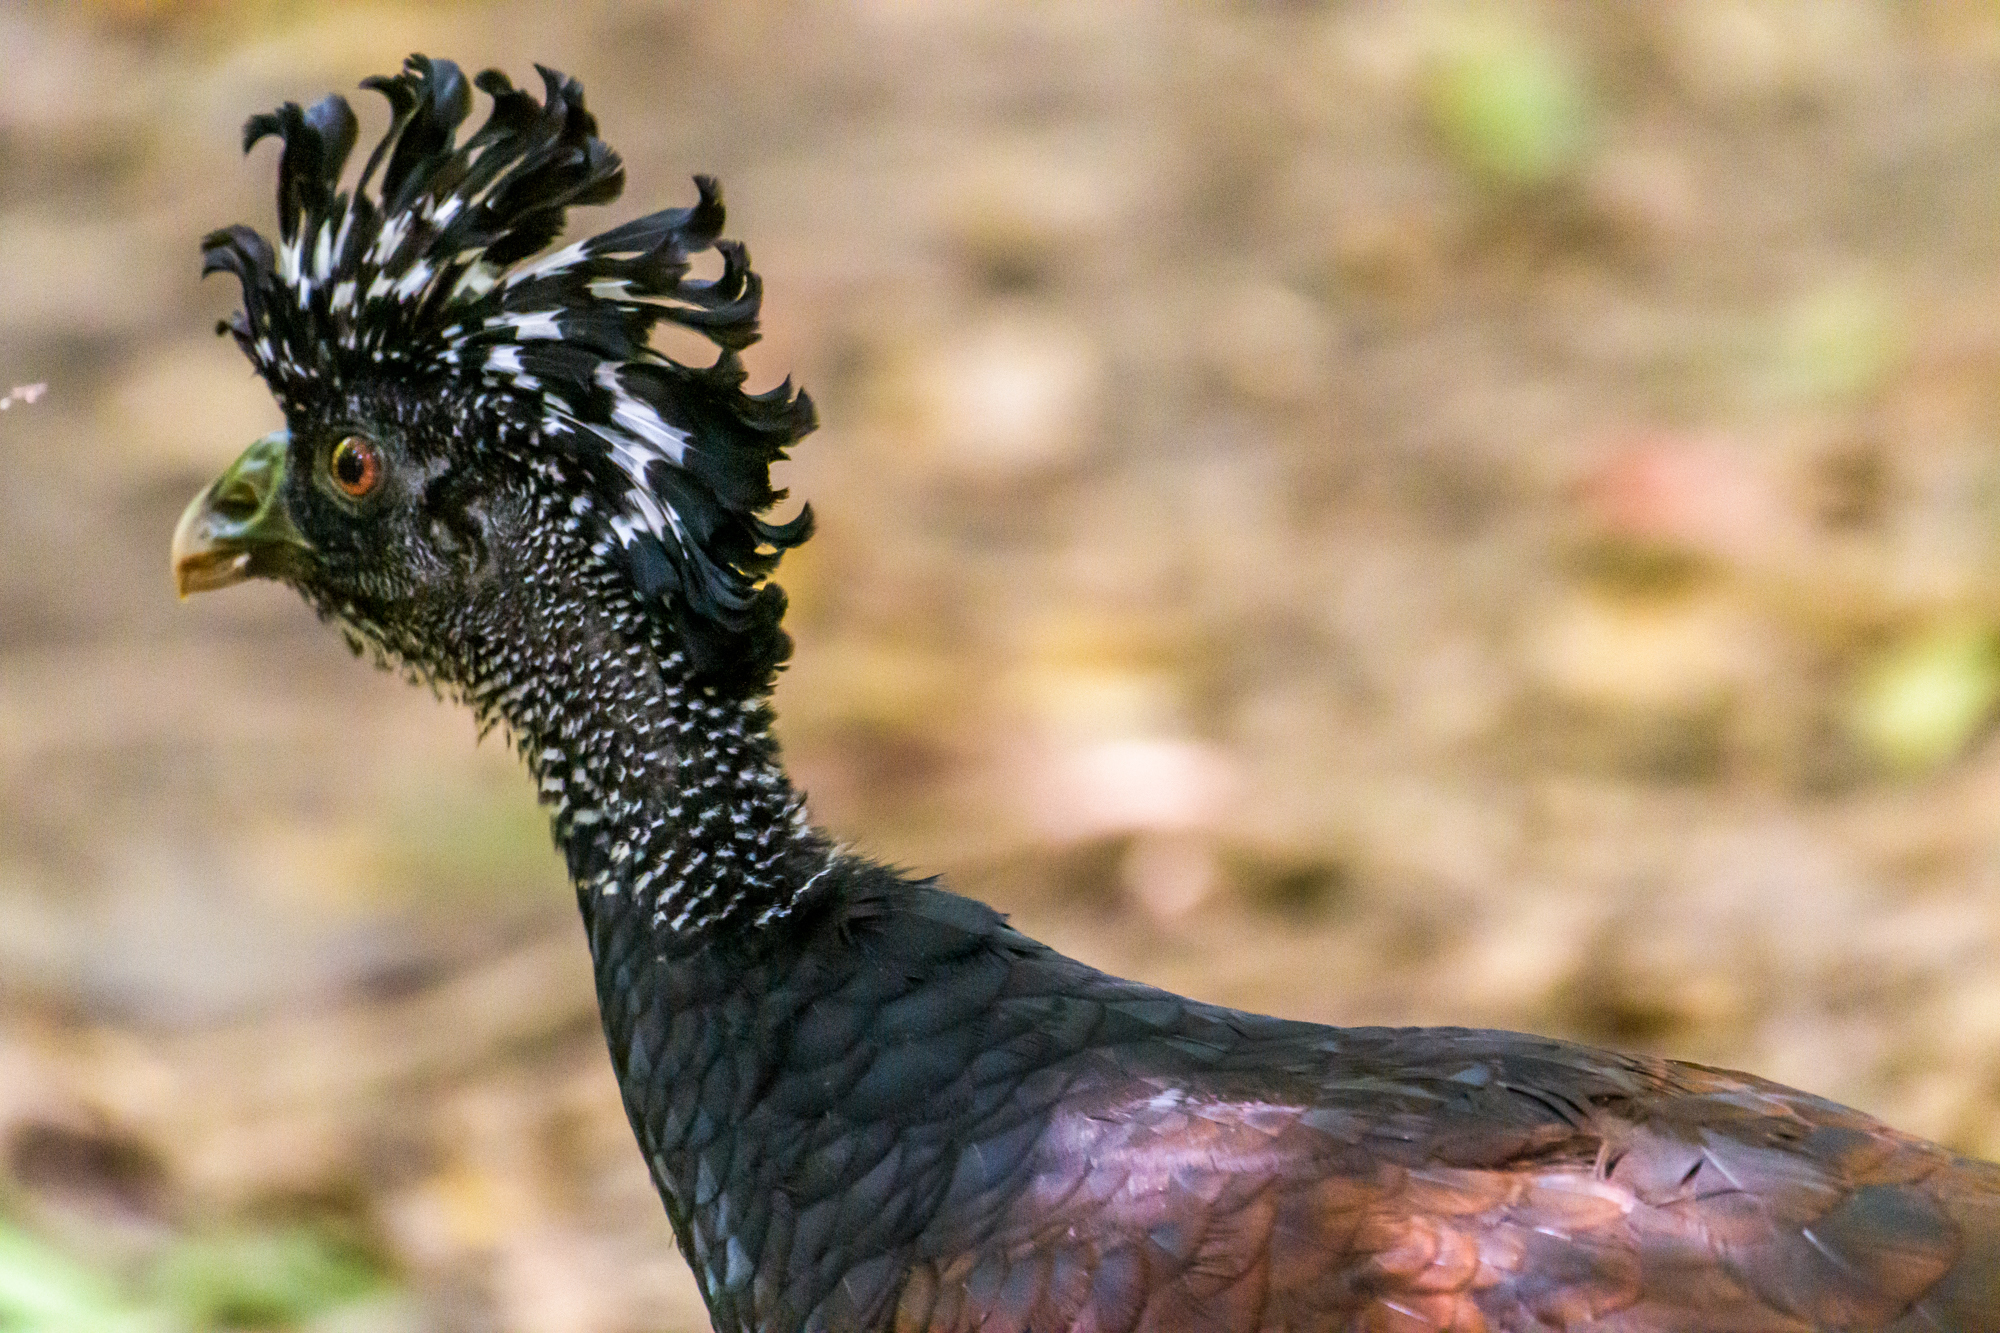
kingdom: Animalia
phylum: Chordata
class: Aves
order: Galliformes
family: Cracidae
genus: Crax
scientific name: Crax rubra
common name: Great curassow
